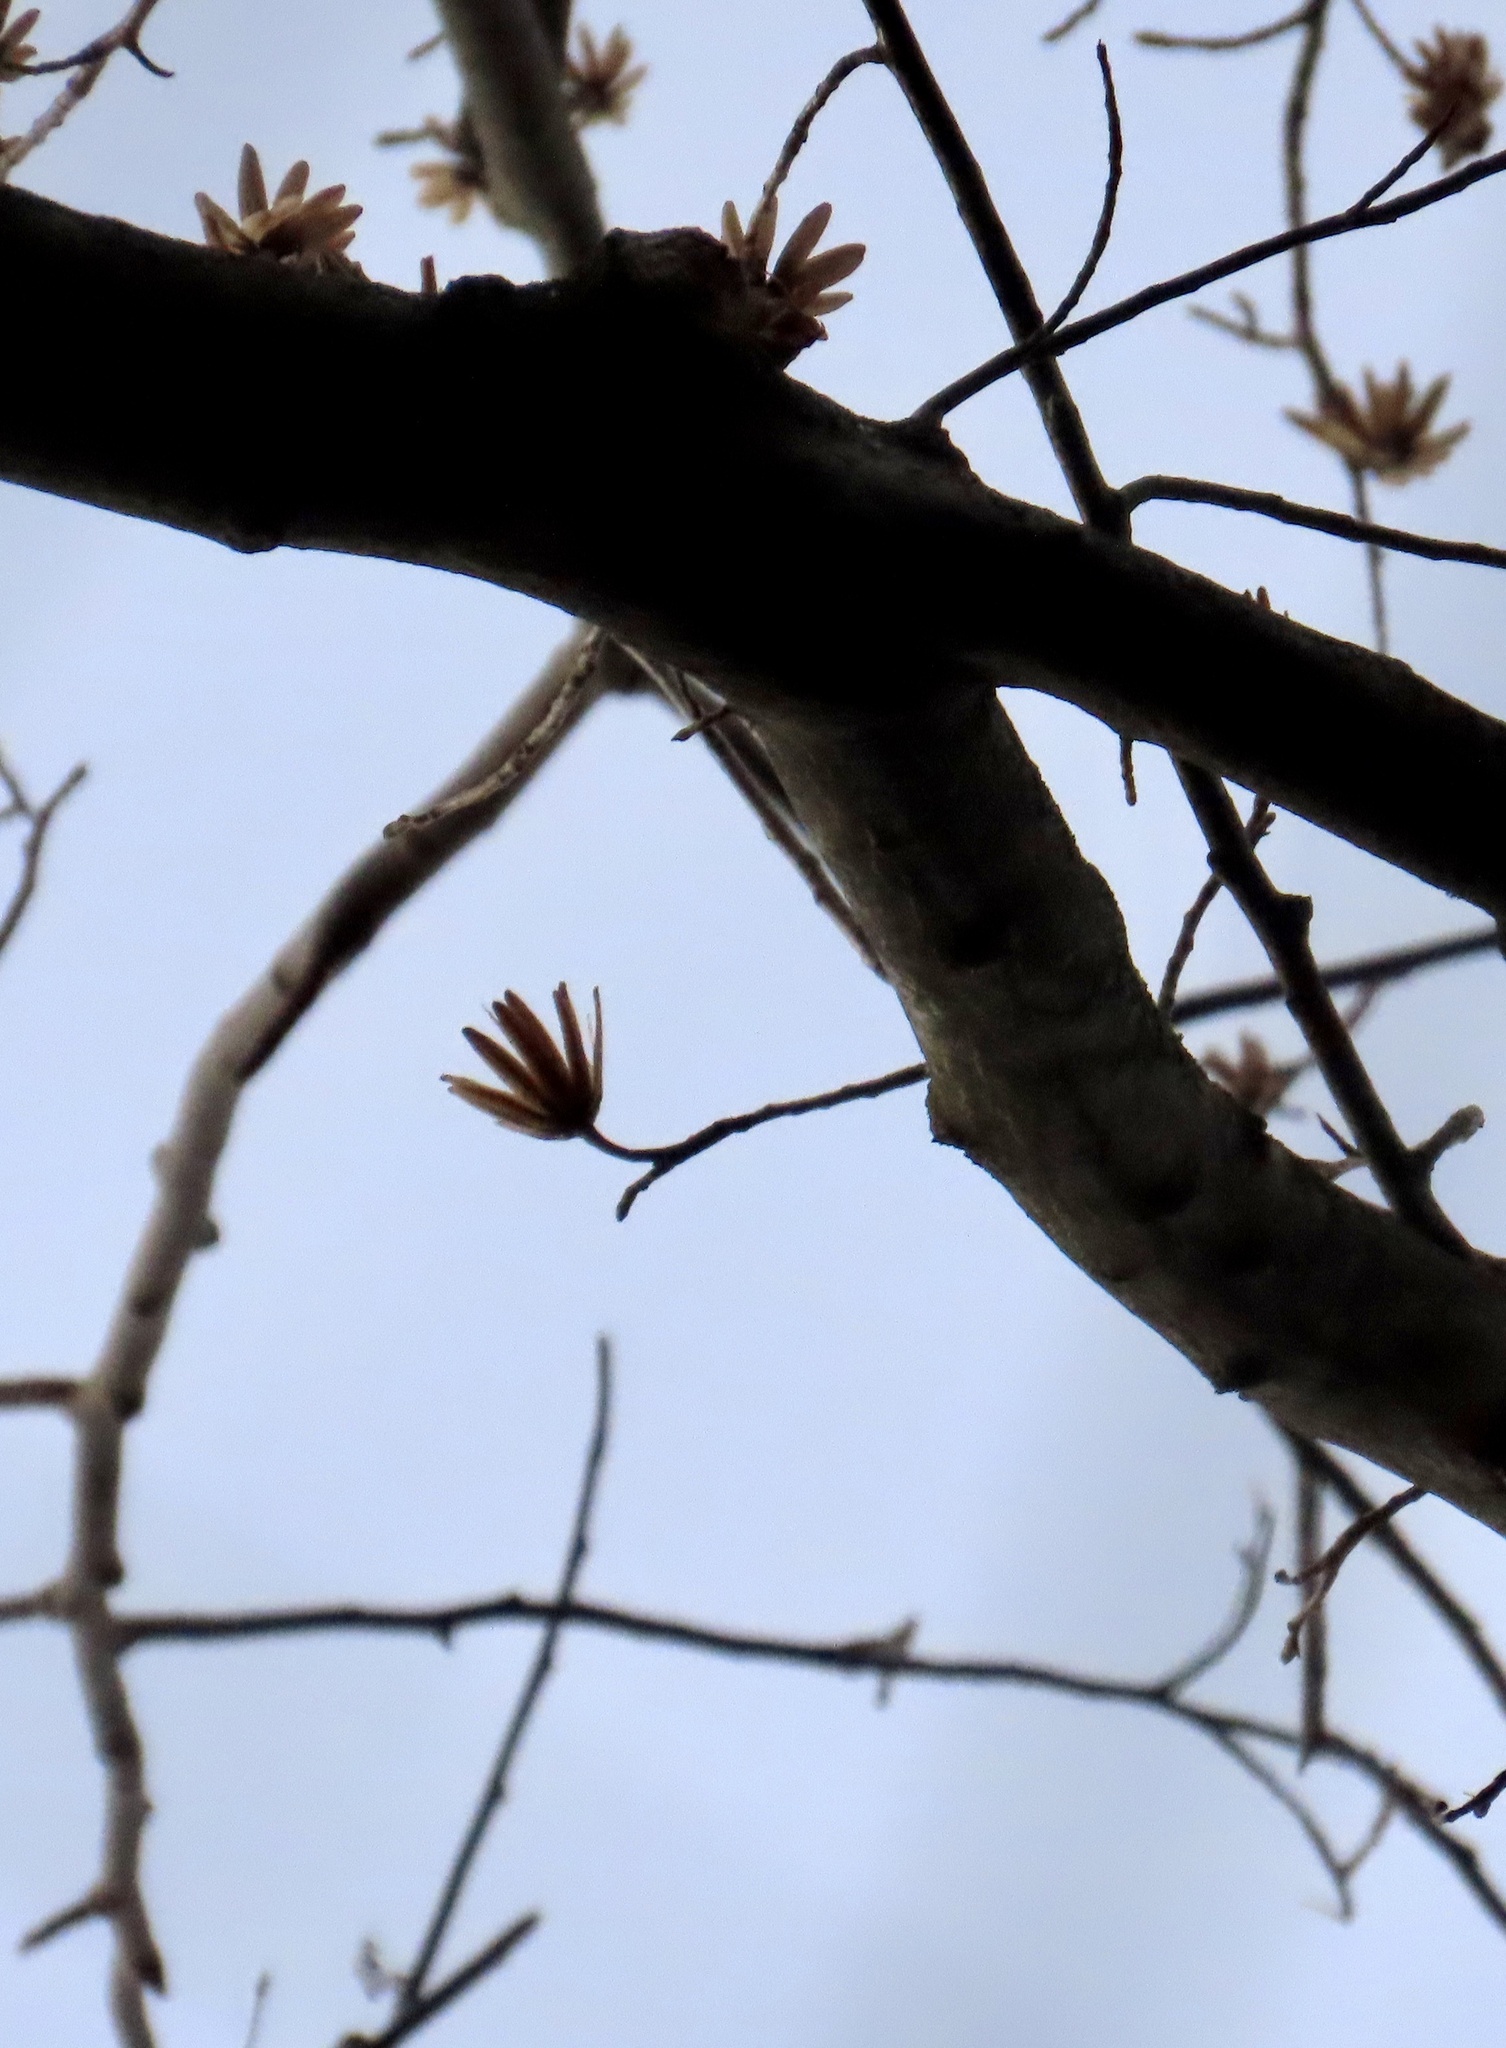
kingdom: Plantae
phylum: Tracheophyta
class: Magnoliopsida
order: Magnoliales
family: Magnoliaceae
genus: Liriodendron
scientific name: Liriodendron tulipifera
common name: Tulip tree
